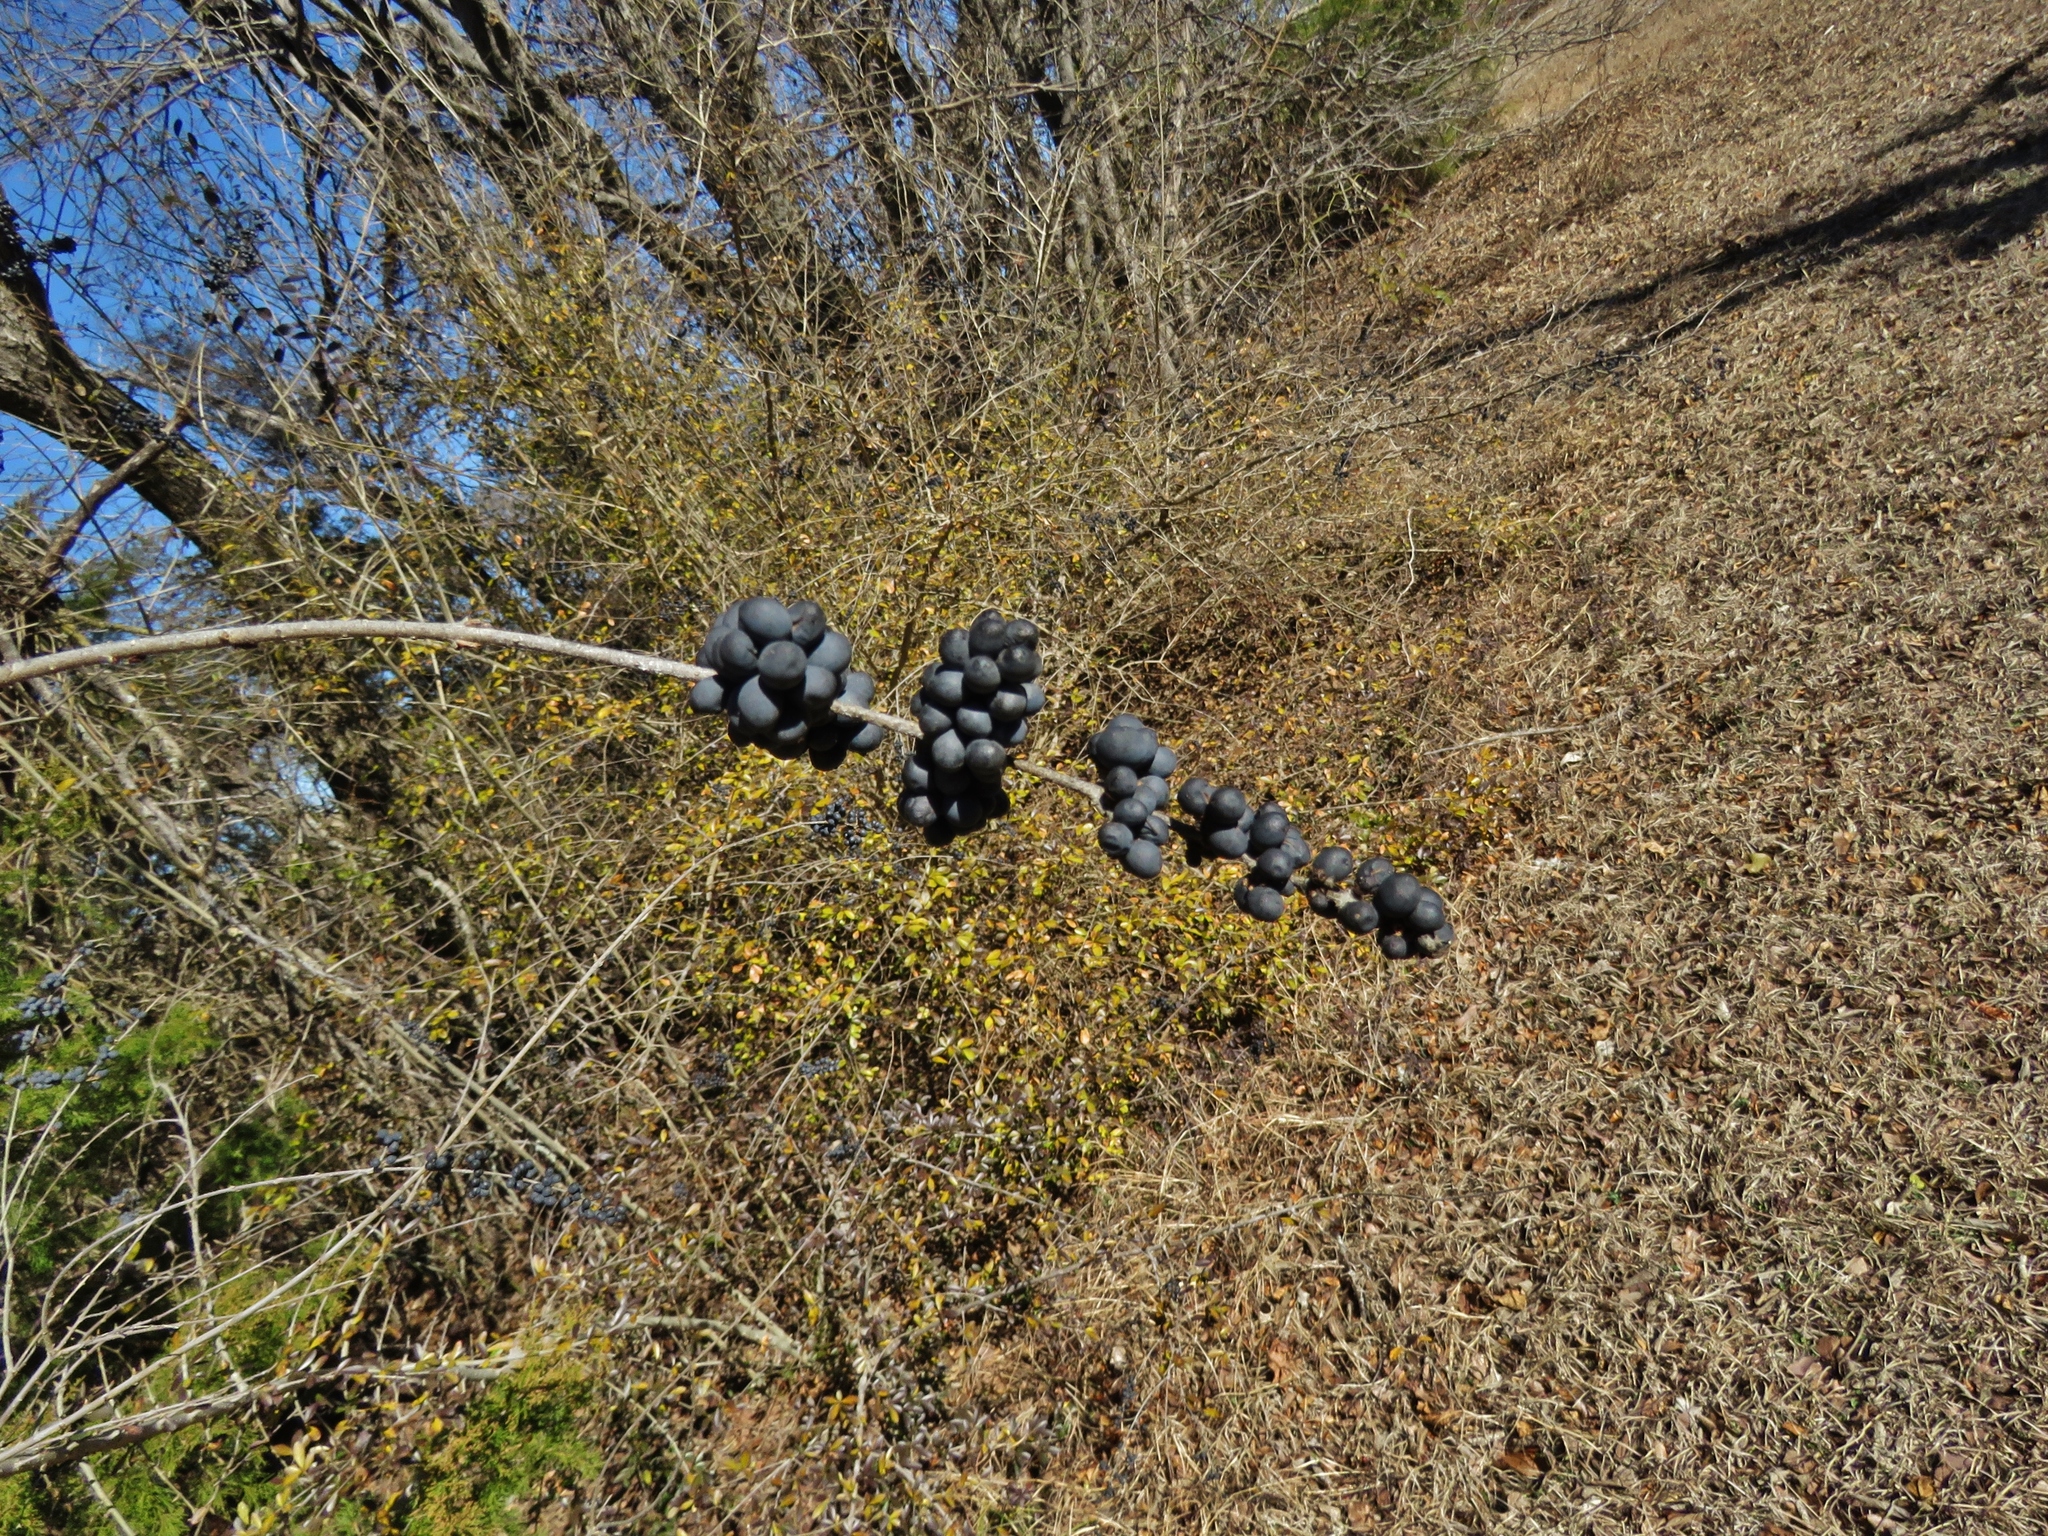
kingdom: Plantae
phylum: Tracheophyta
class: Magnoliopsida
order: Lamiales
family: Oleaceae
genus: Ligustrum
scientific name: Ligustrum quihoui
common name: Waxyleaf privet
